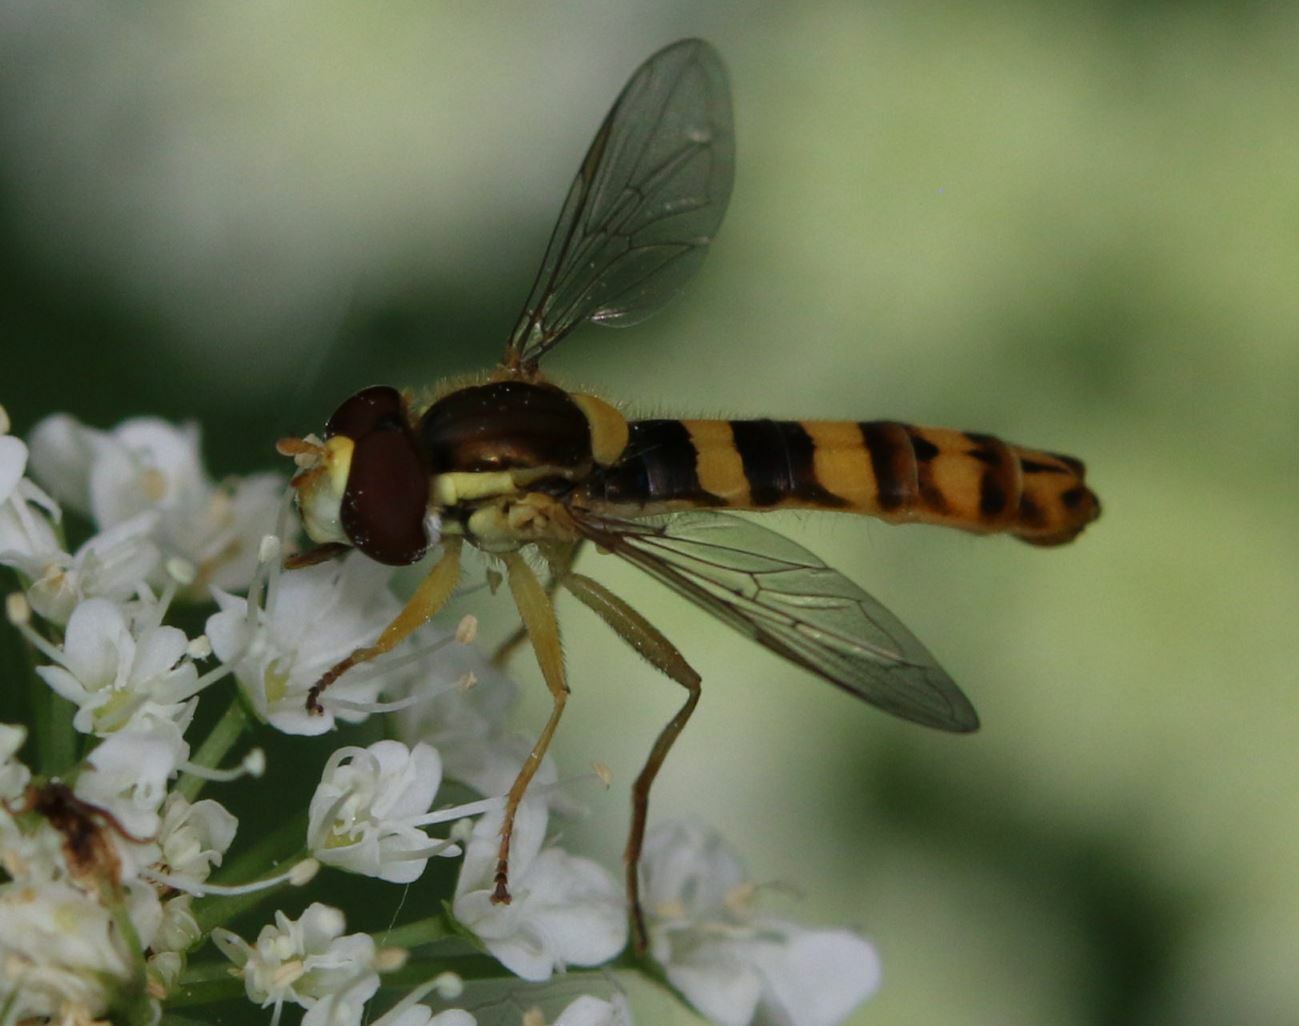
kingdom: Animalia
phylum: Arthropoda
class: Insecta
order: Diptera
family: Syrphidae
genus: Sphaerophoria
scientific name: Sphaerophoria scripta
